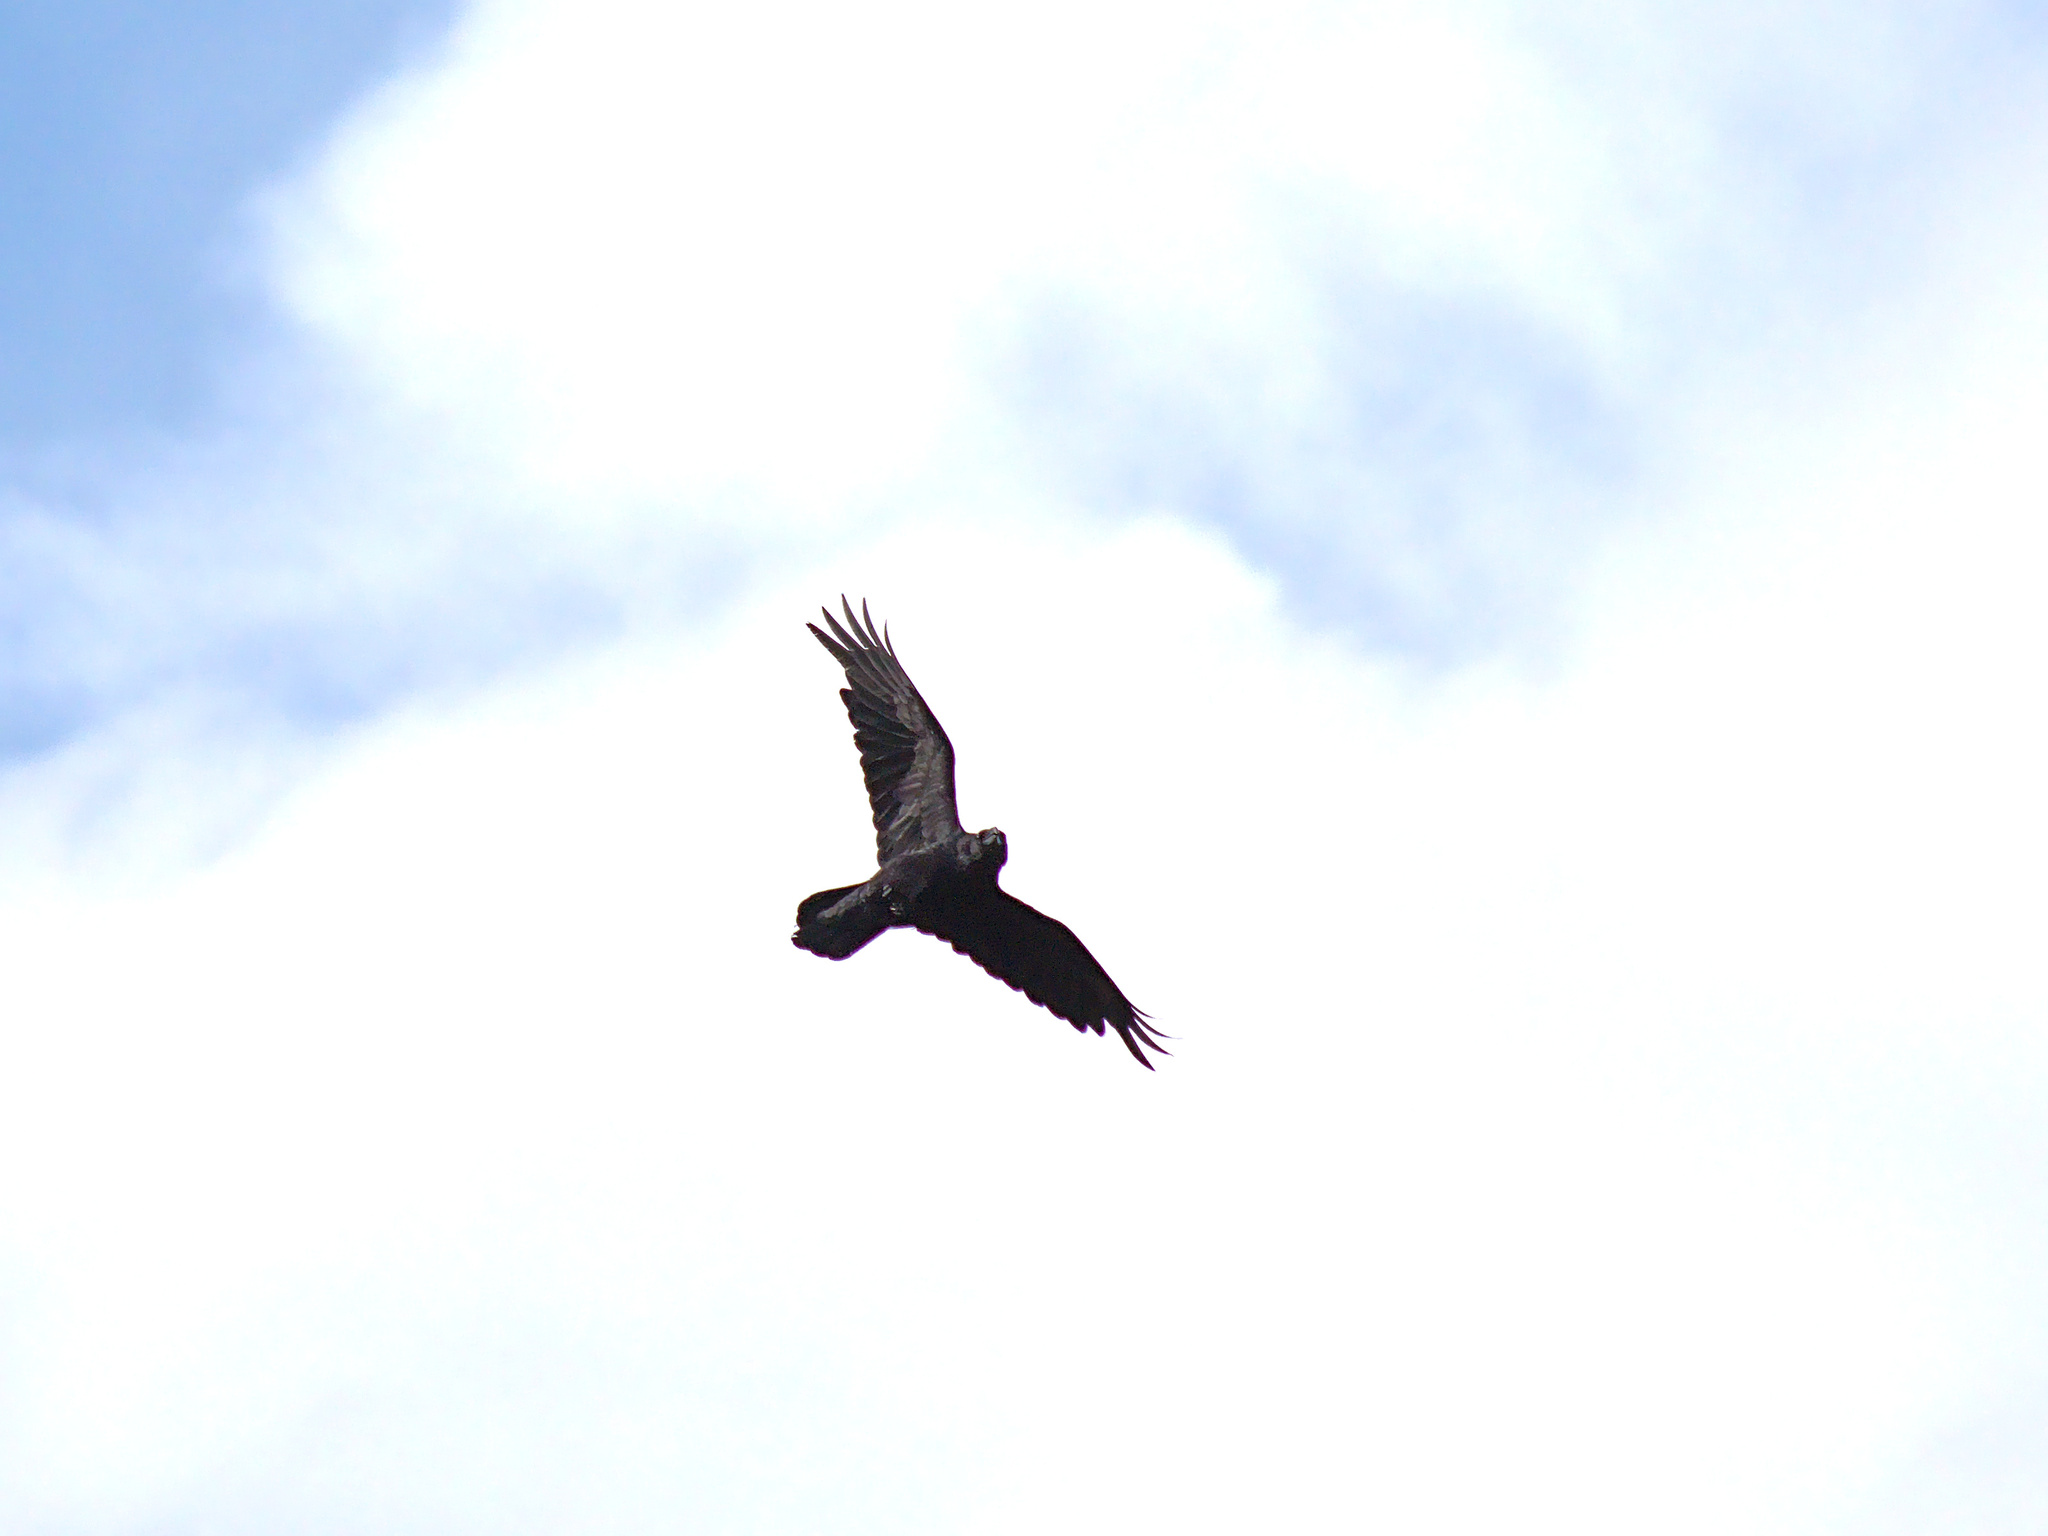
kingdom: Animalia
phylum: Chordata
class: Aves
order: Passeriformes
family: Corvidae
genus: Corvus
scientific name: Corvus corax
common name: Common raven
